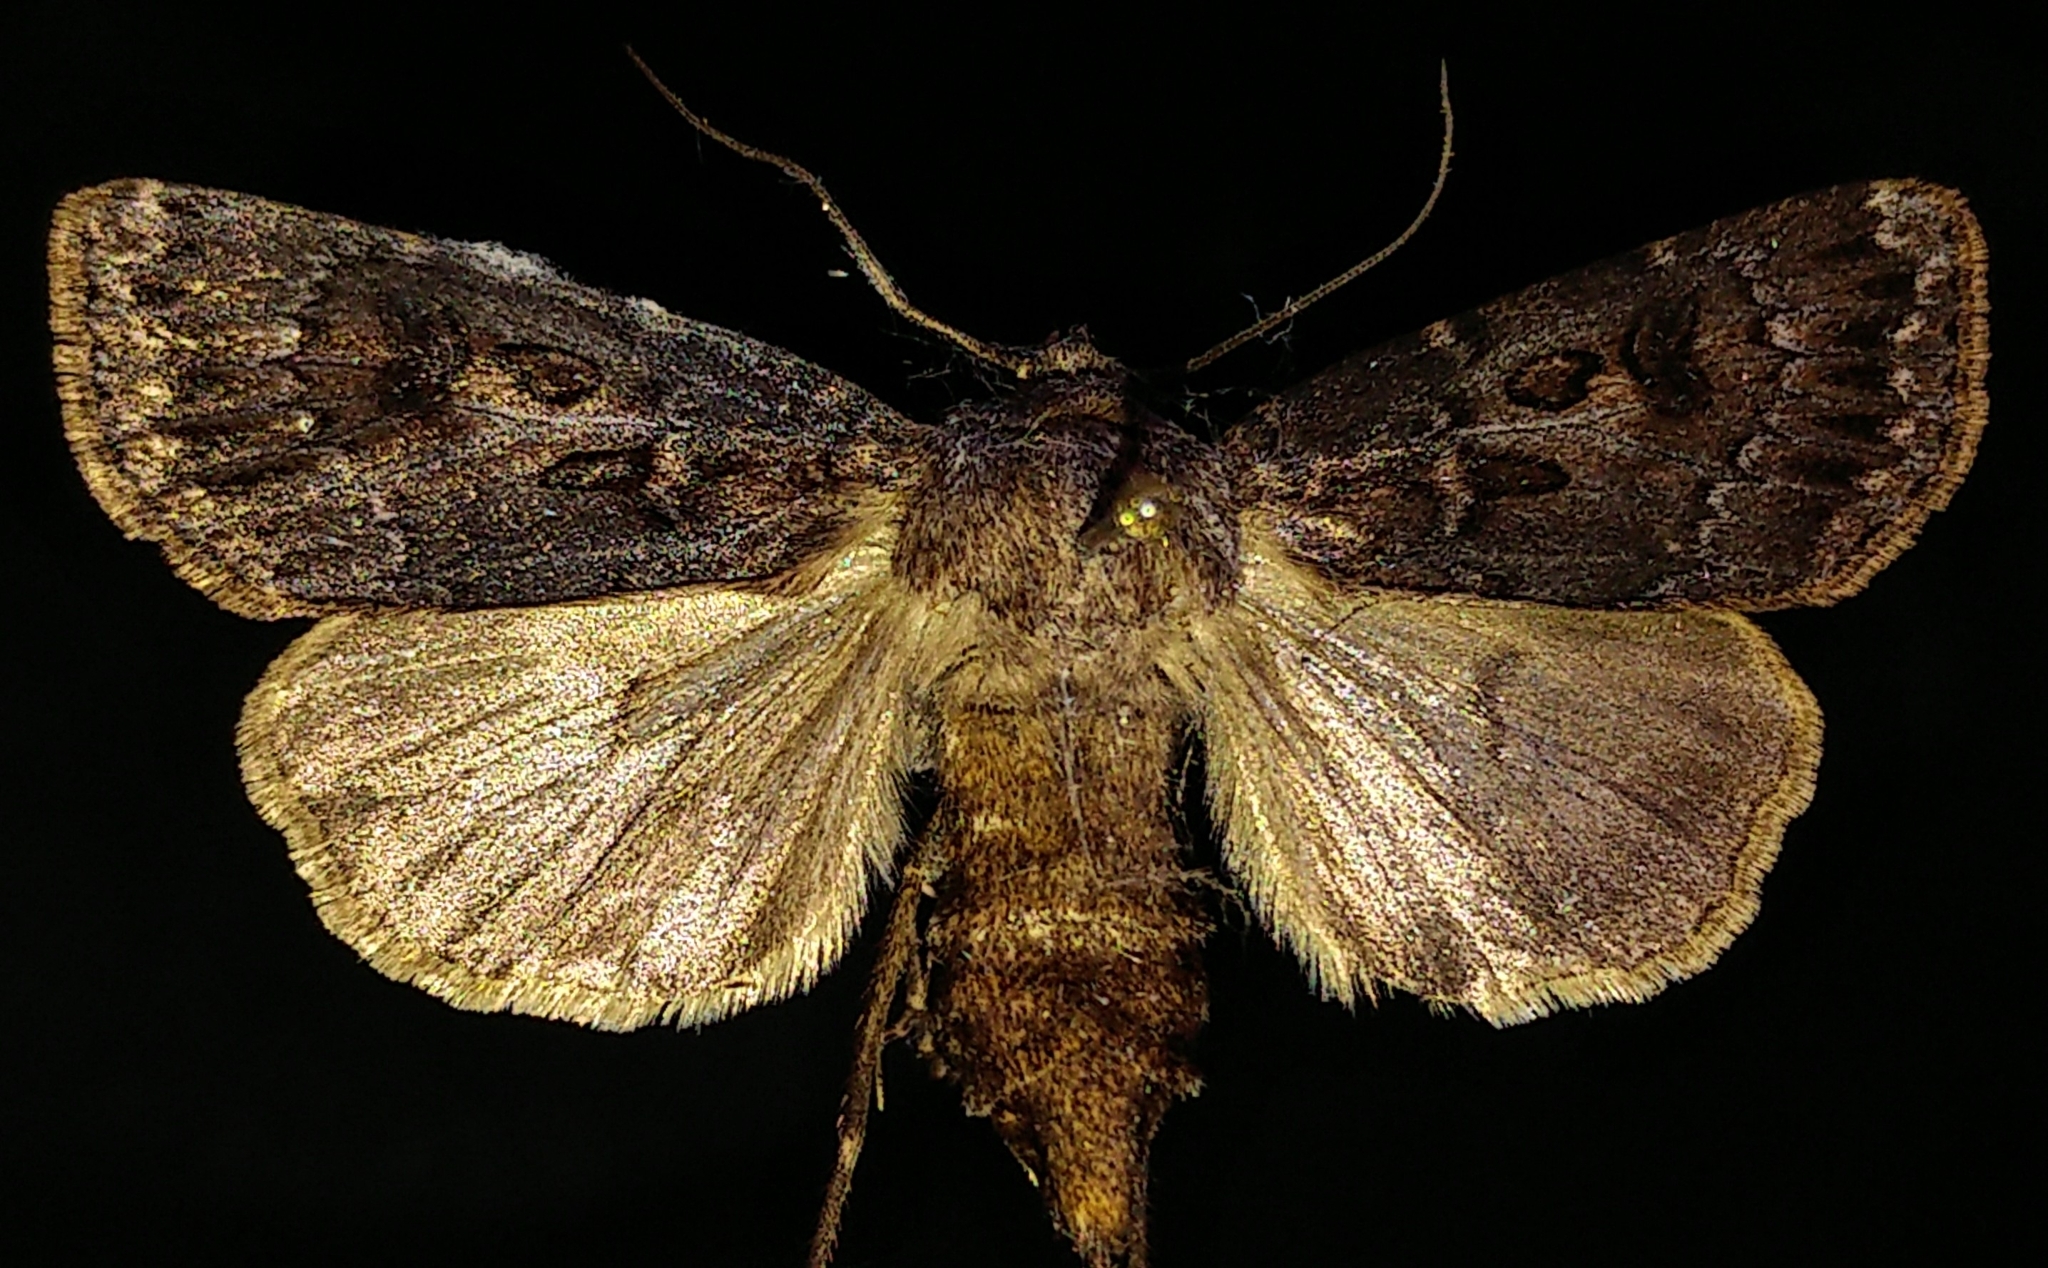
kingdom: Animalia
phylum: Arthropoda
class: Insecta
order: Lepidoptera
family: Noctuidae
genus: Agrotis
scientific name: Agrotis ruta
